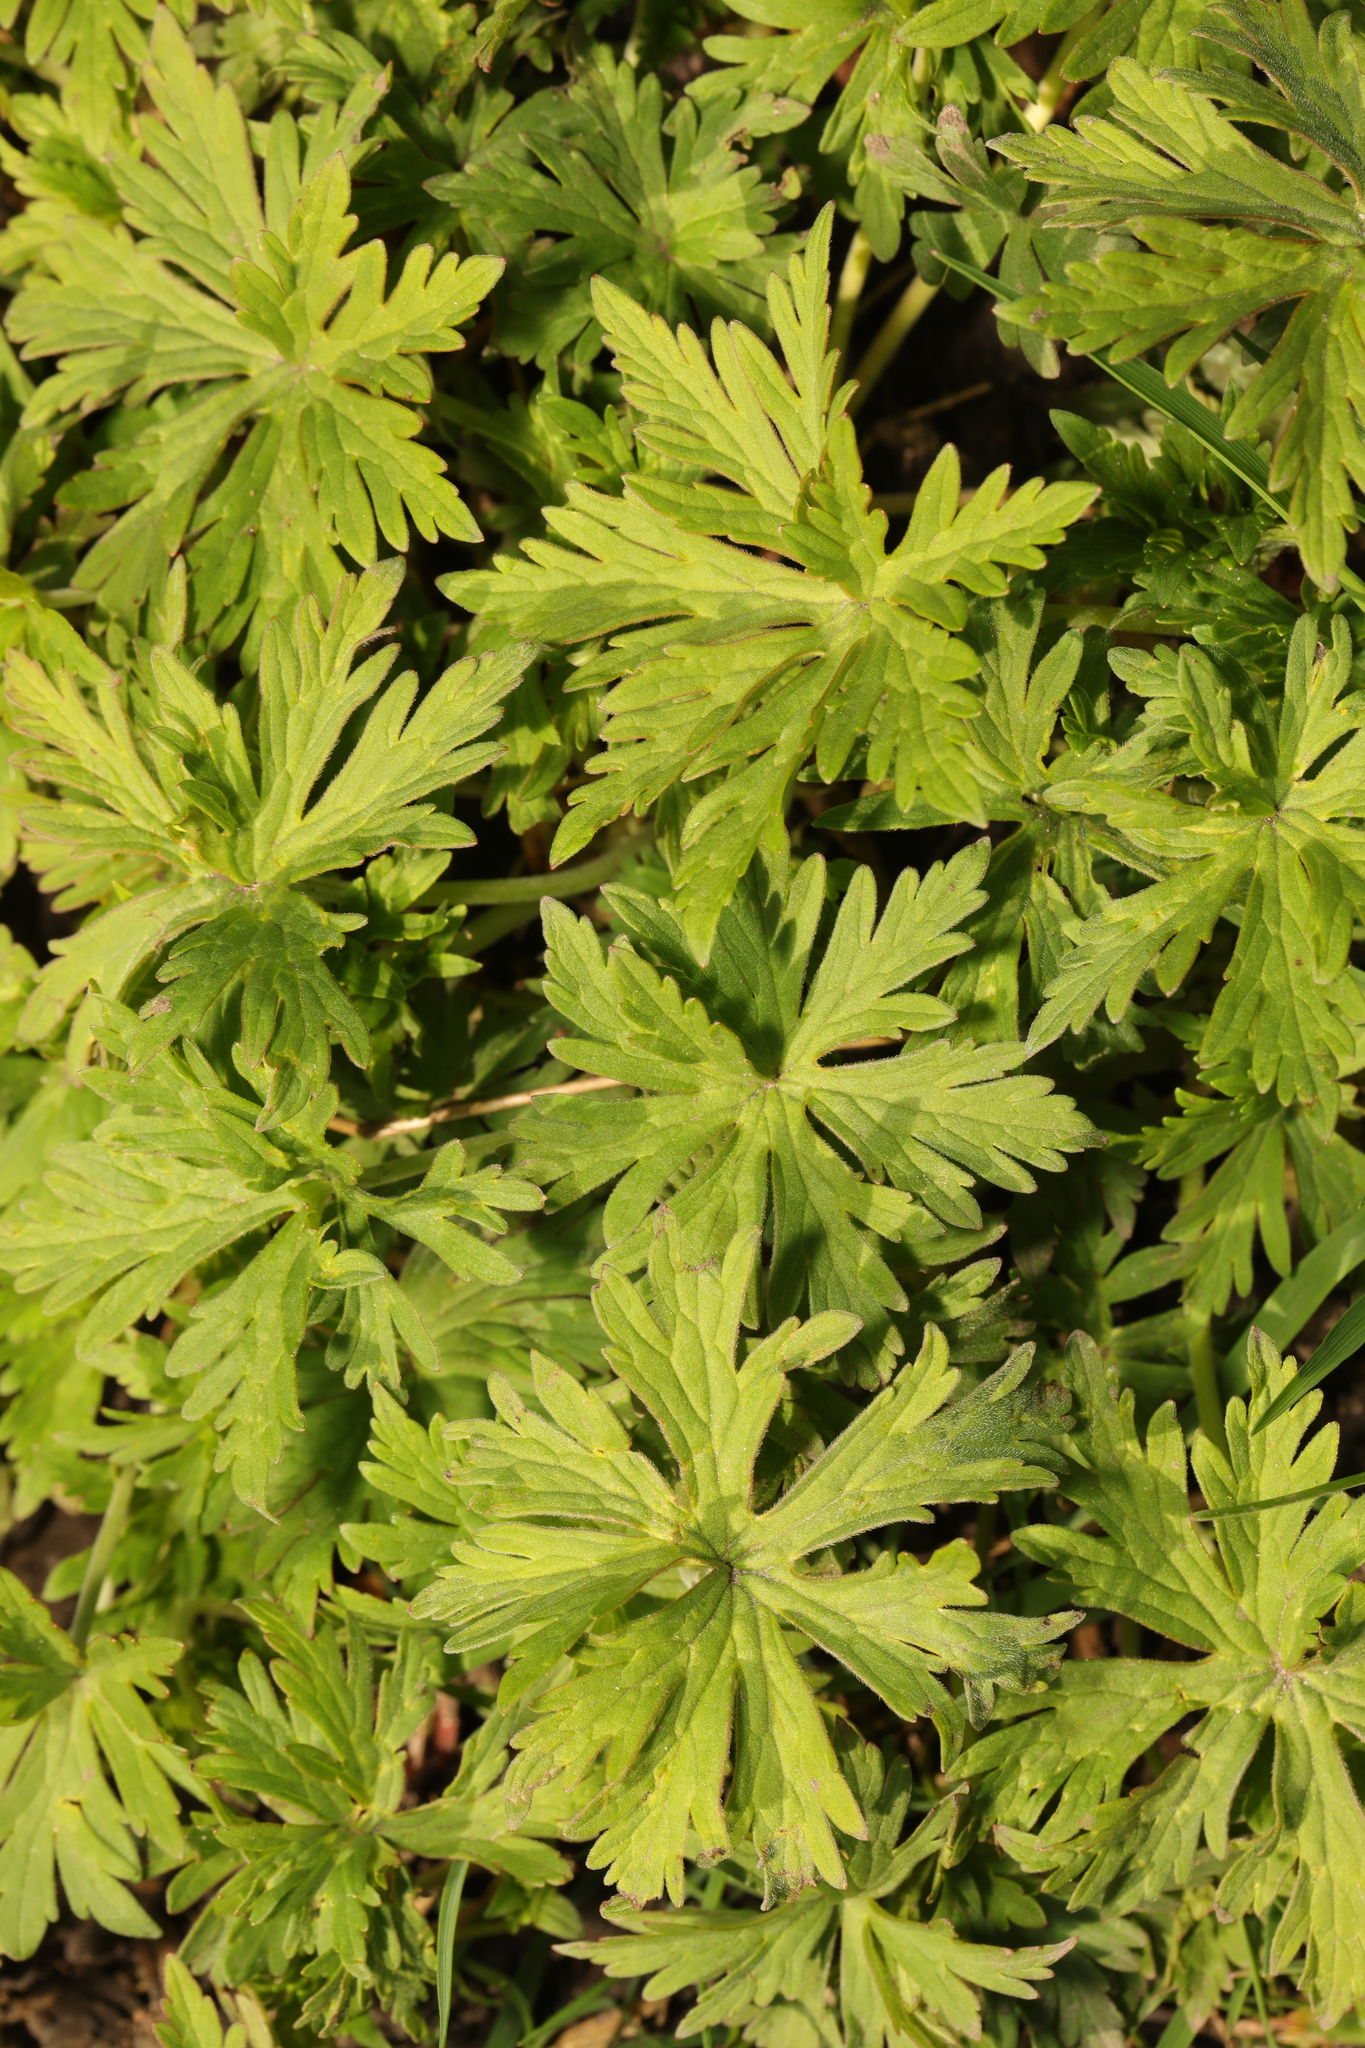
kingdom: Plantae
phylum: Tracheophyta
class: Magnoliopsida
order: Geraniales
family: Geraniaceae
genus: Geranium
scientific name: Geranium pratense
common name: Meadow crane's-bill
